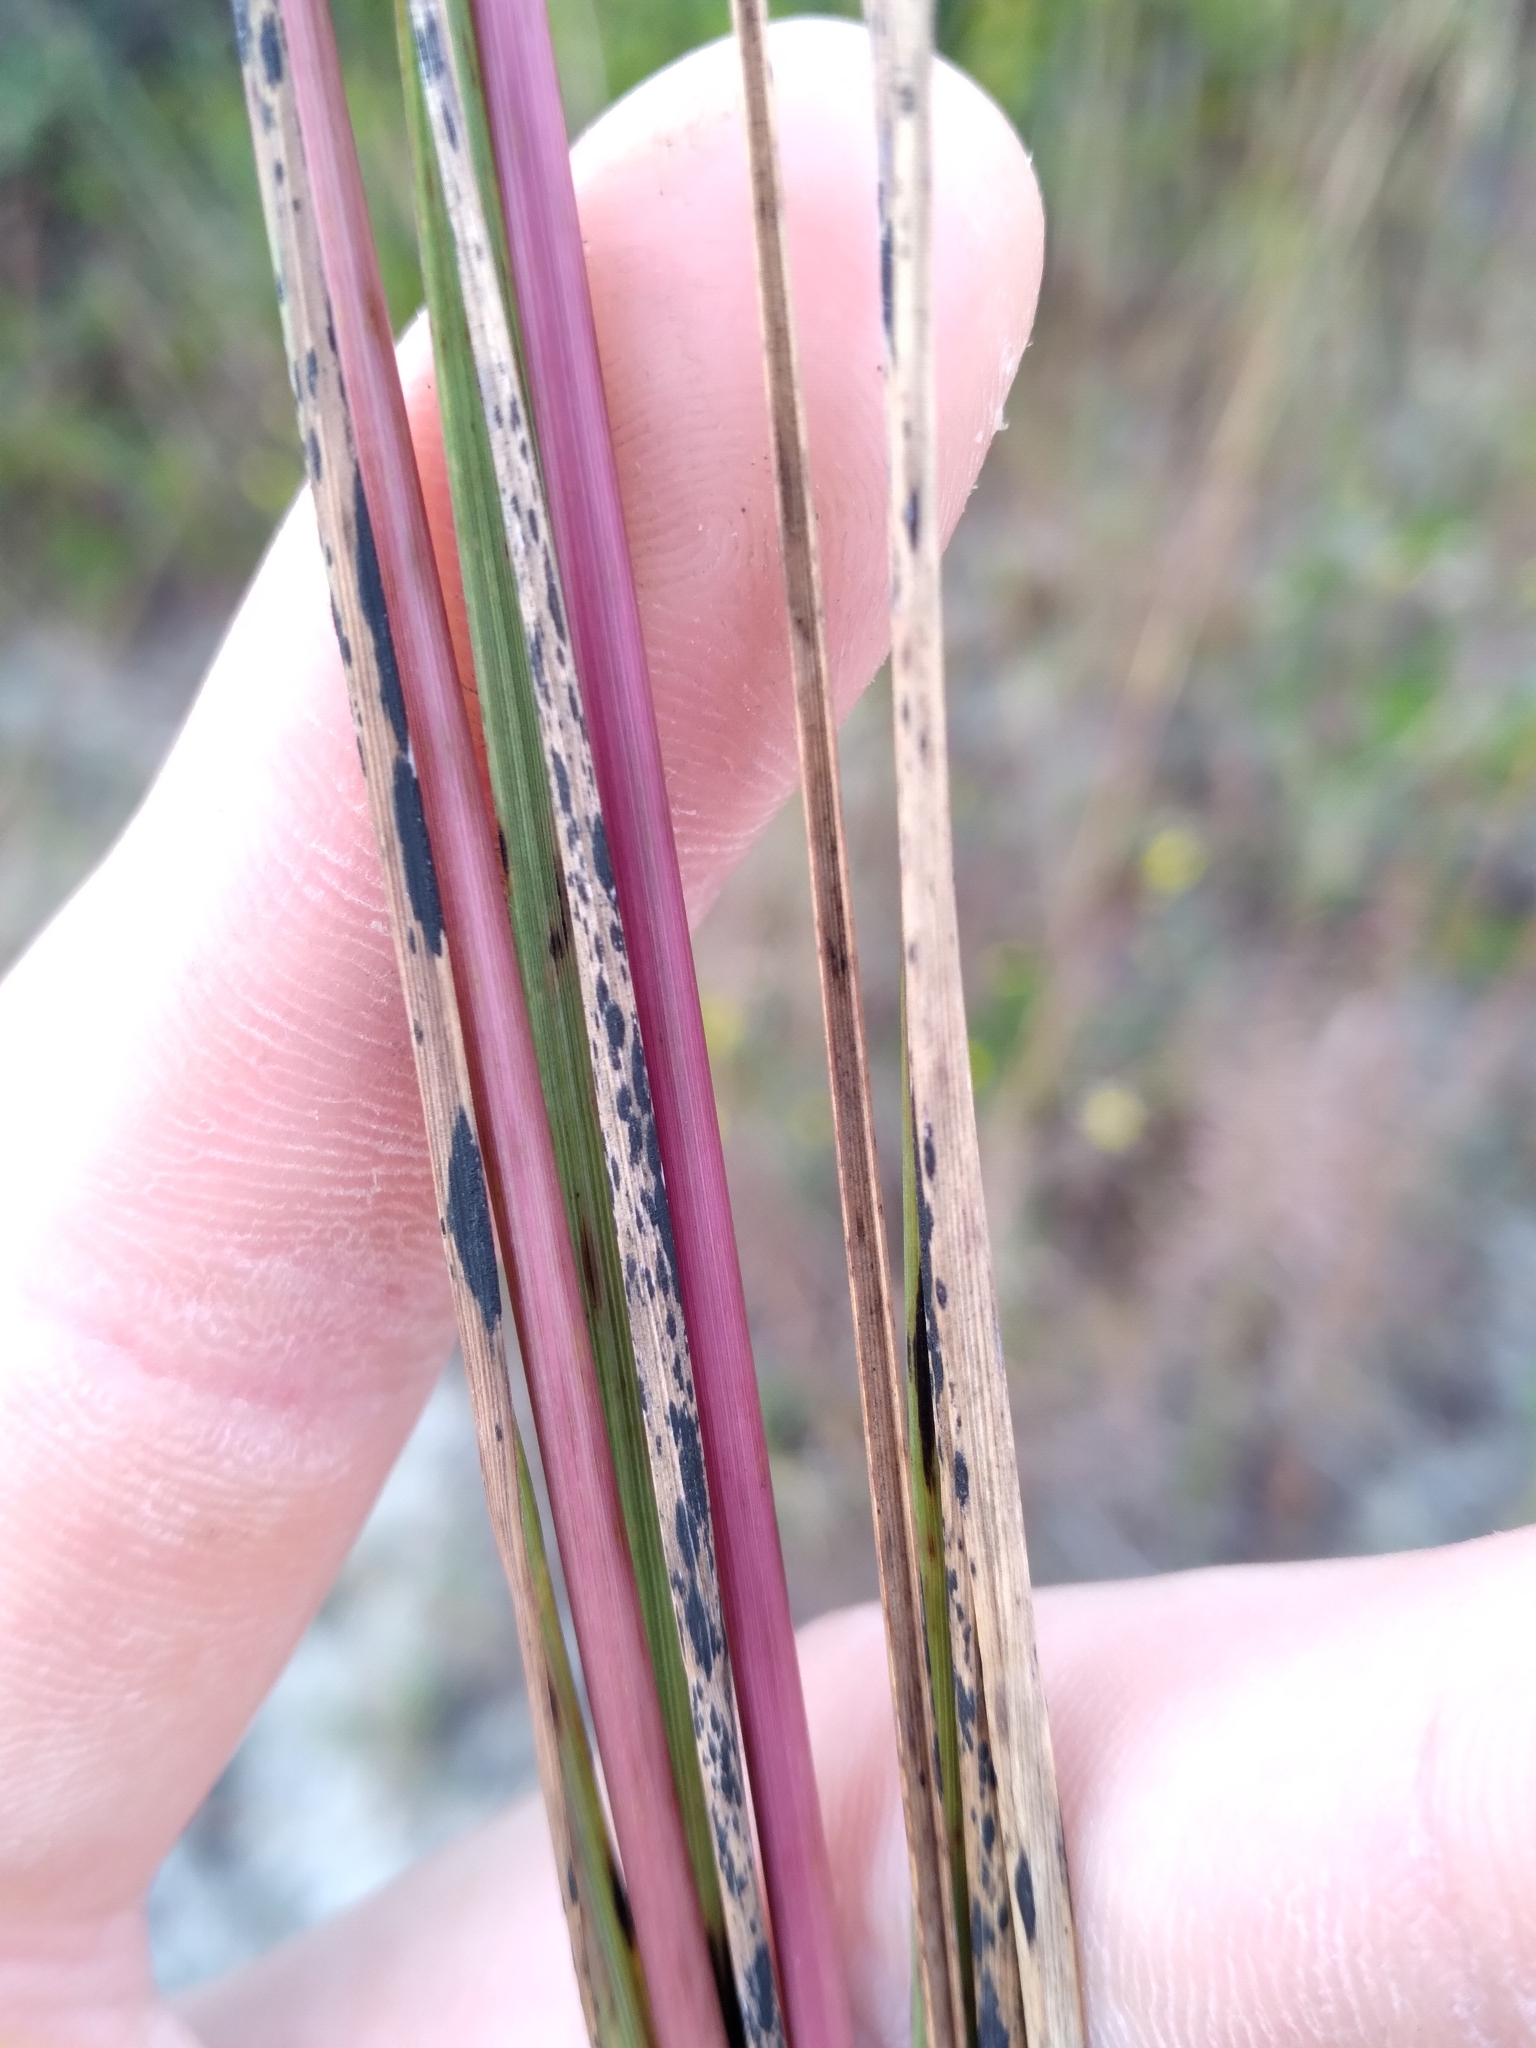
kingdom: Plantae
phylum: Tracheophyta
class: Liliopsida
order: Poales
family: Poaceae
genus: Aristida
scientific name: Aristida condensata
